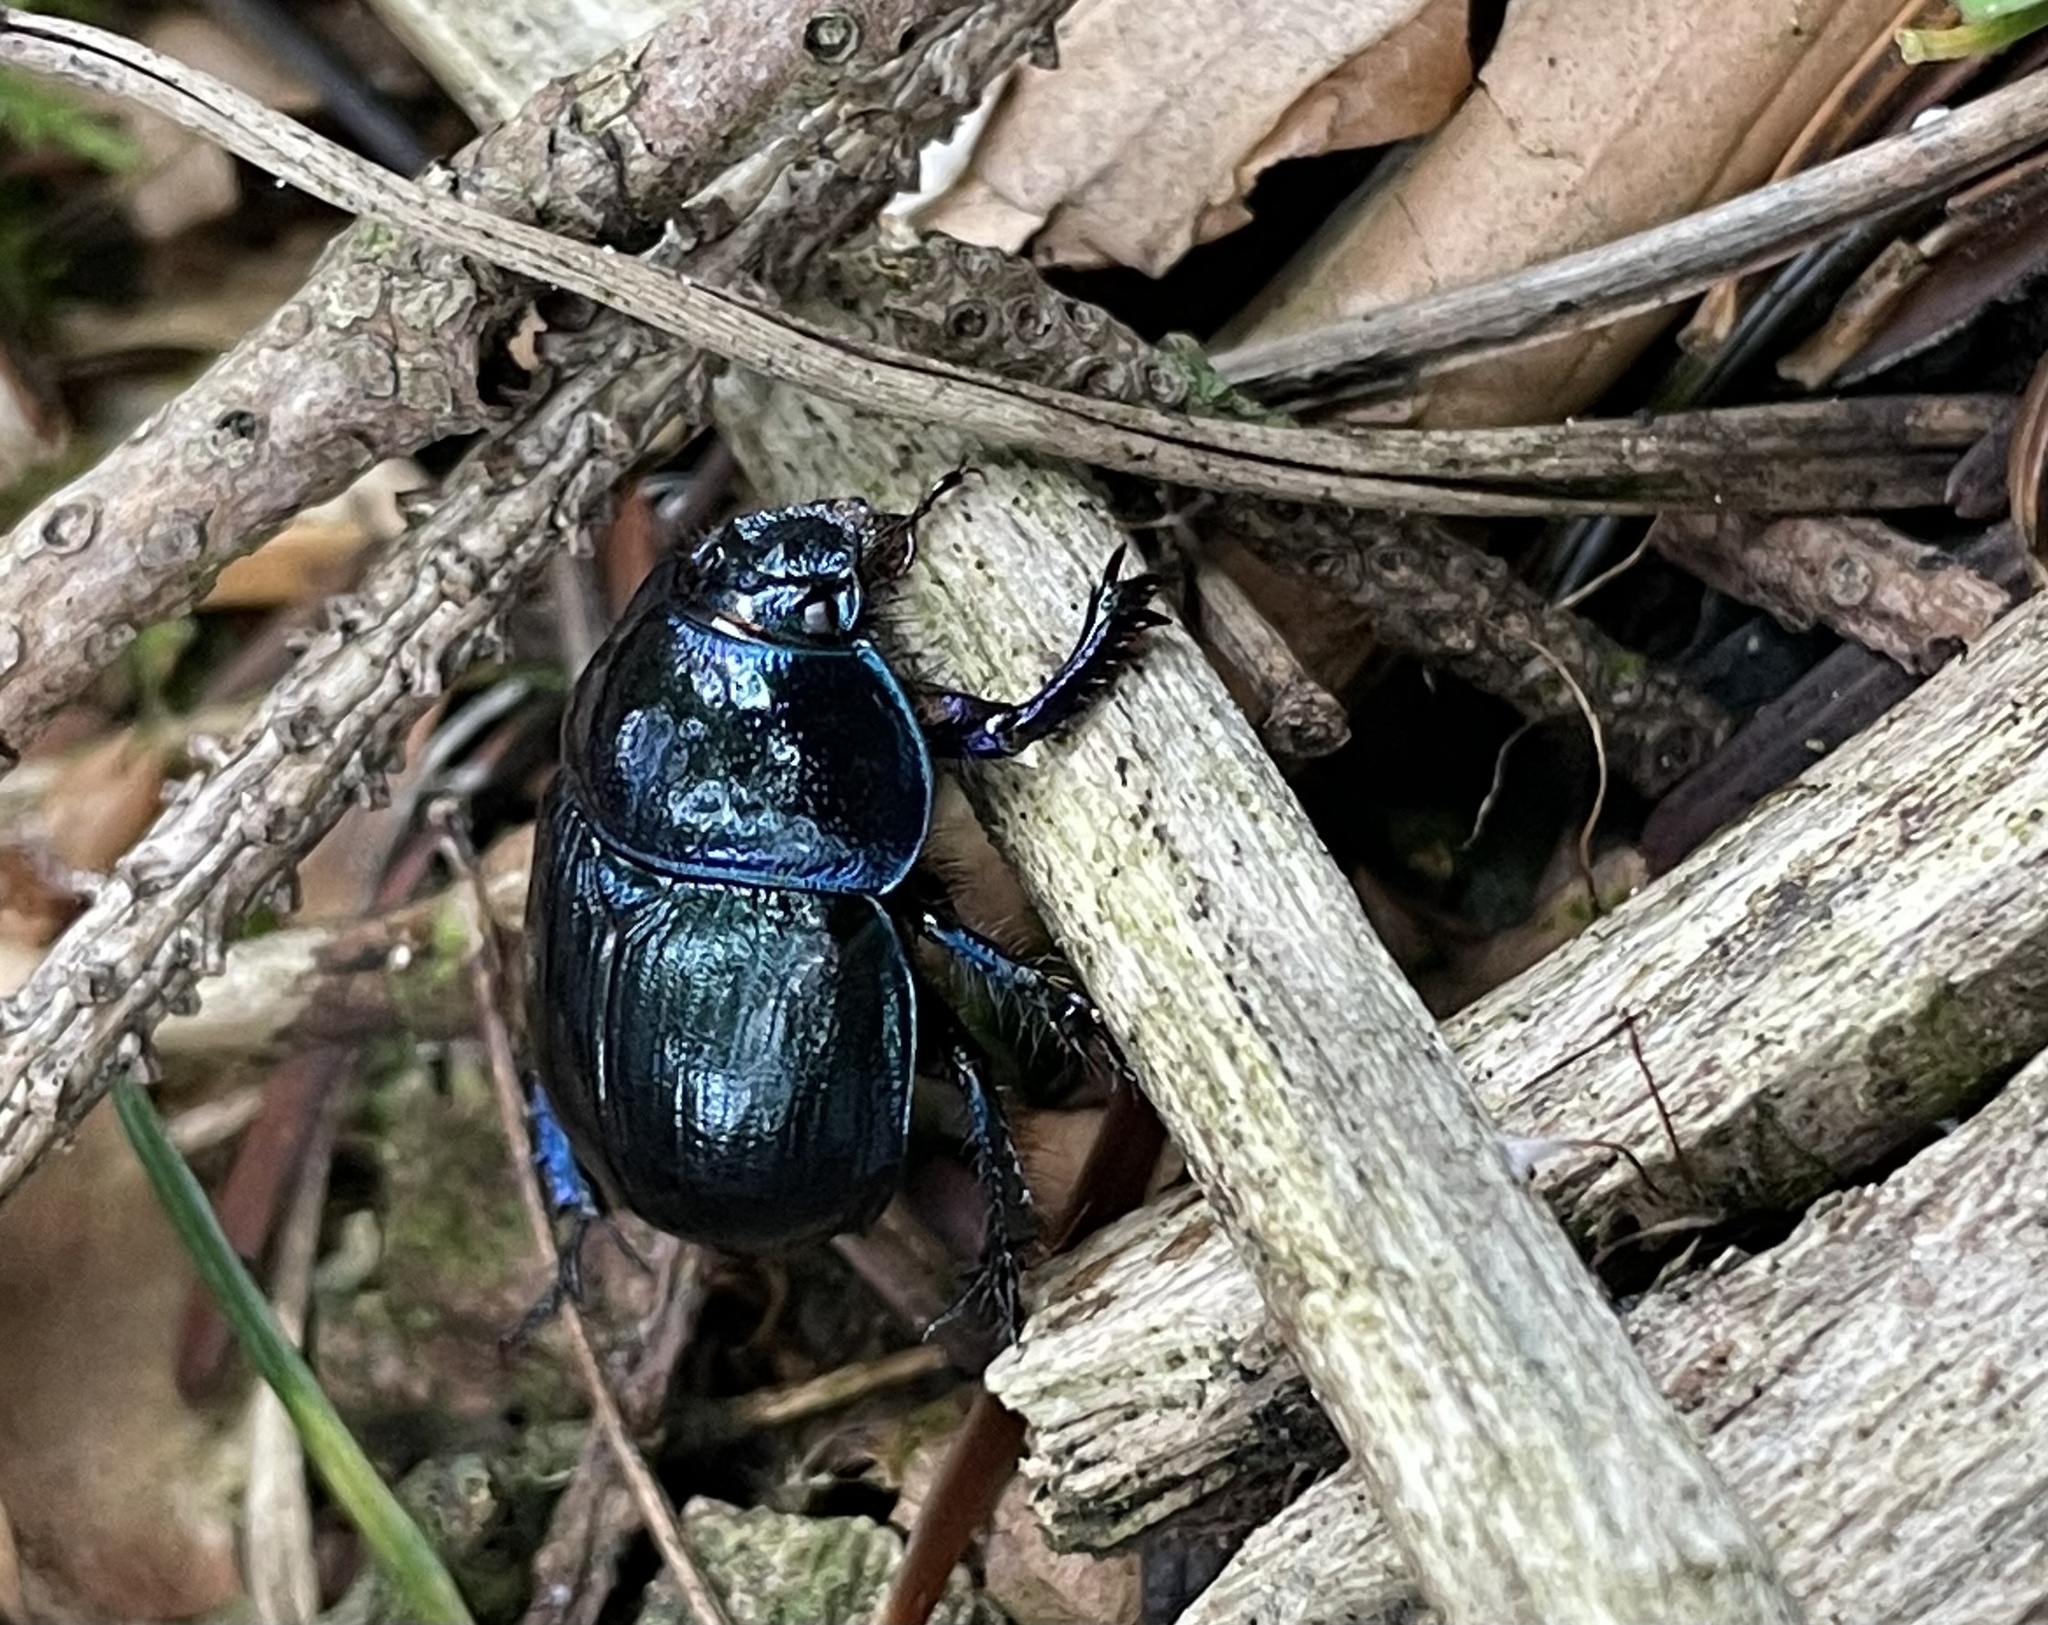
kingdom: Animalia
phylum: Arthropoda
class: Insecta
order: Coleoptera
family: Geotrupidae
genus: Anoplotrupes
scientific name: Anoplotrupes stercorosus
